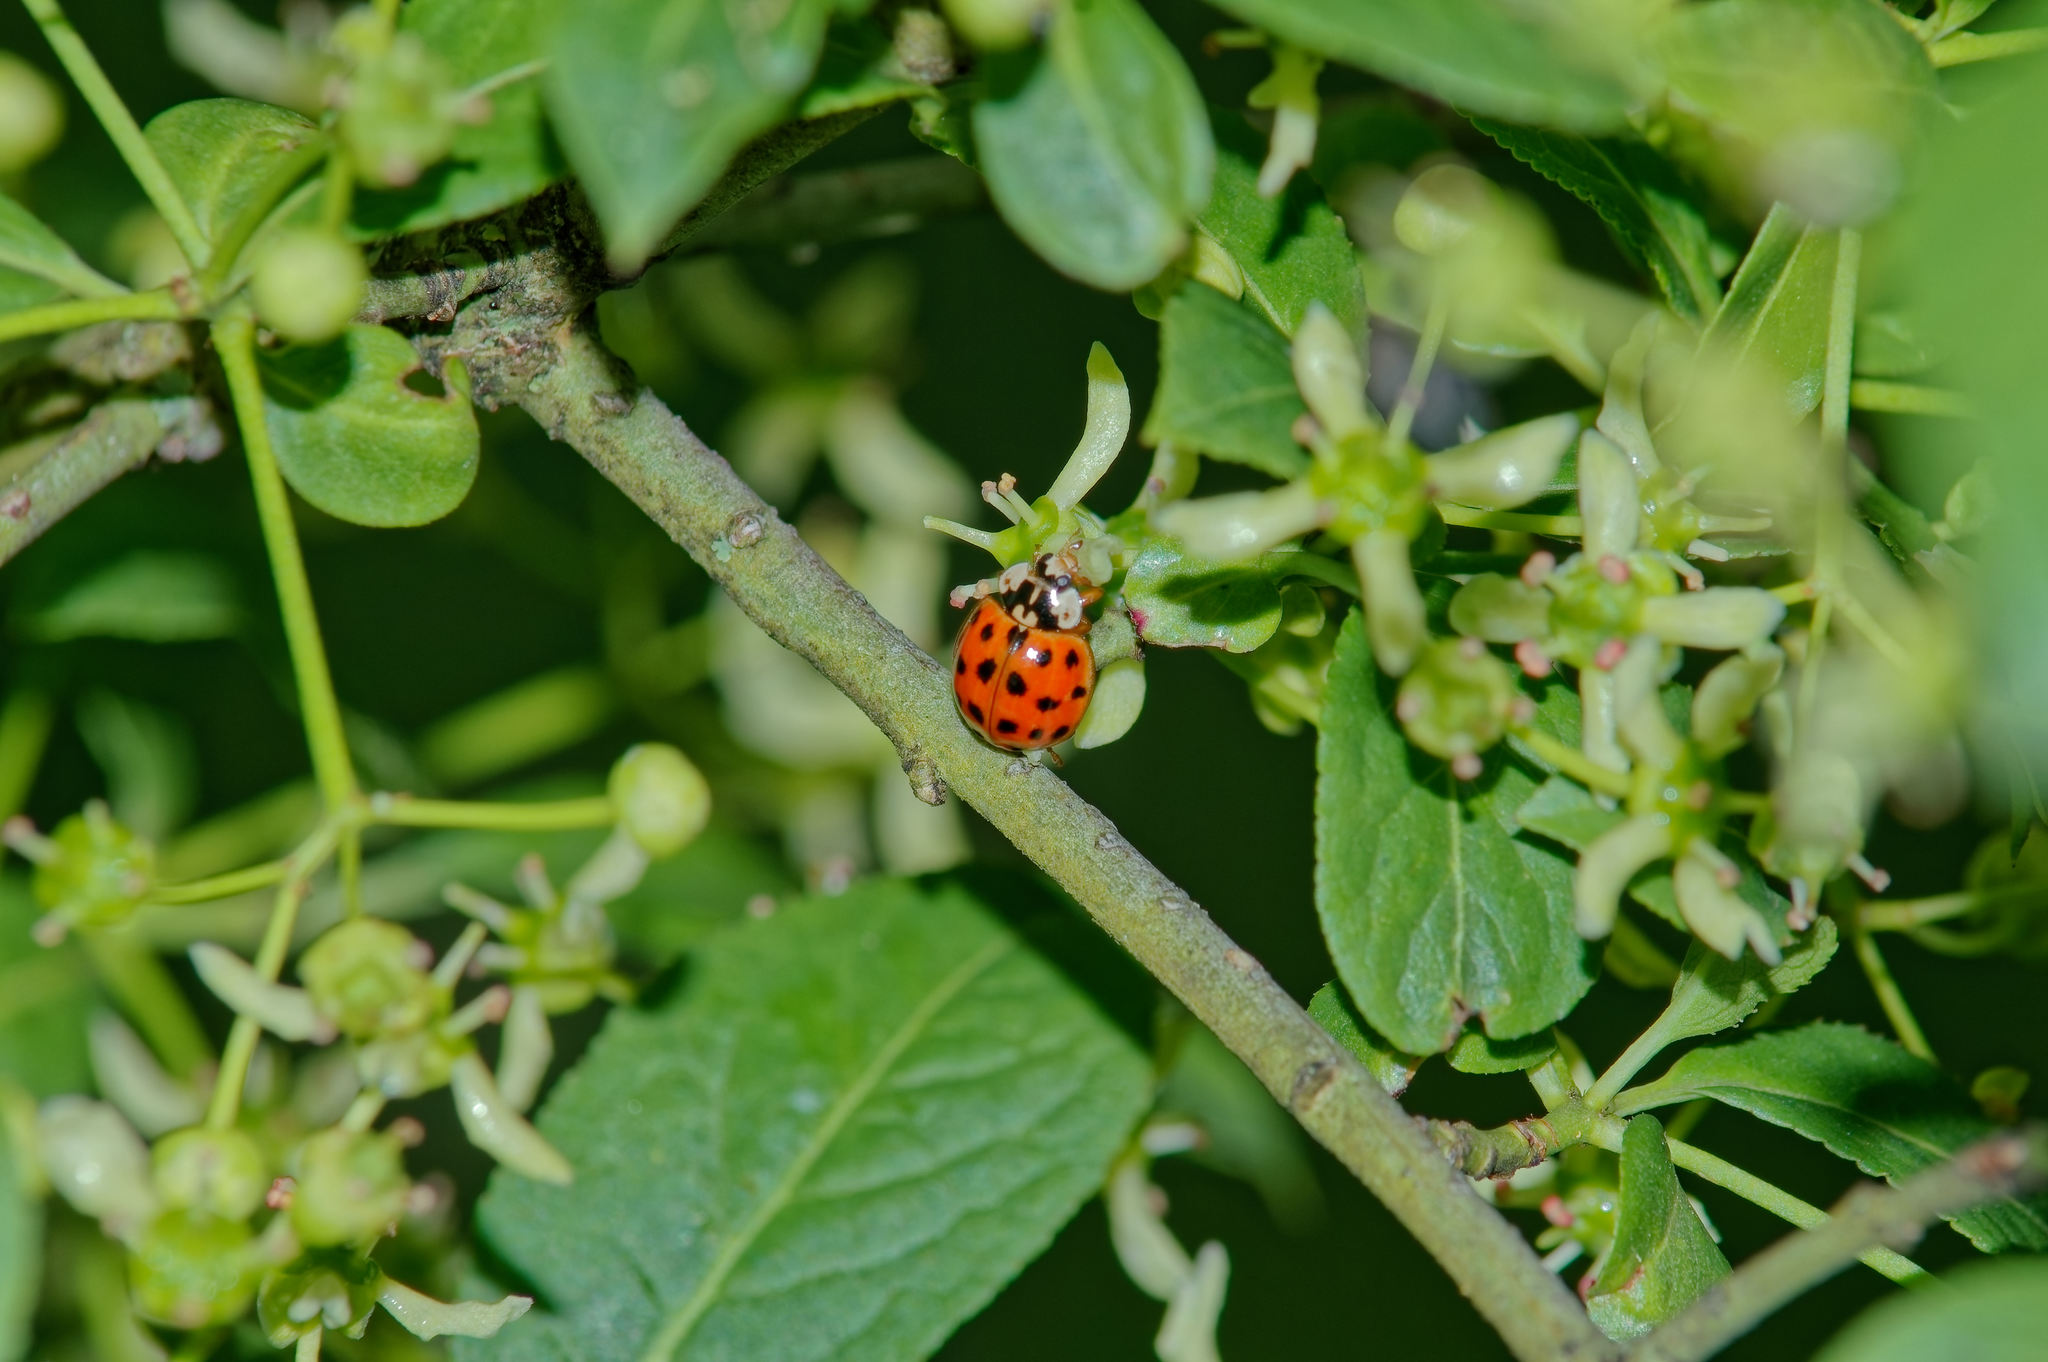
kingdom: Animalia
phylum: Arthropoda
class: Insecta
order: Coleoptera
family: Coccinellidae
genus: Harmonia
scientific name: Harmonia axyridis
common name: Harlequin ladybird
